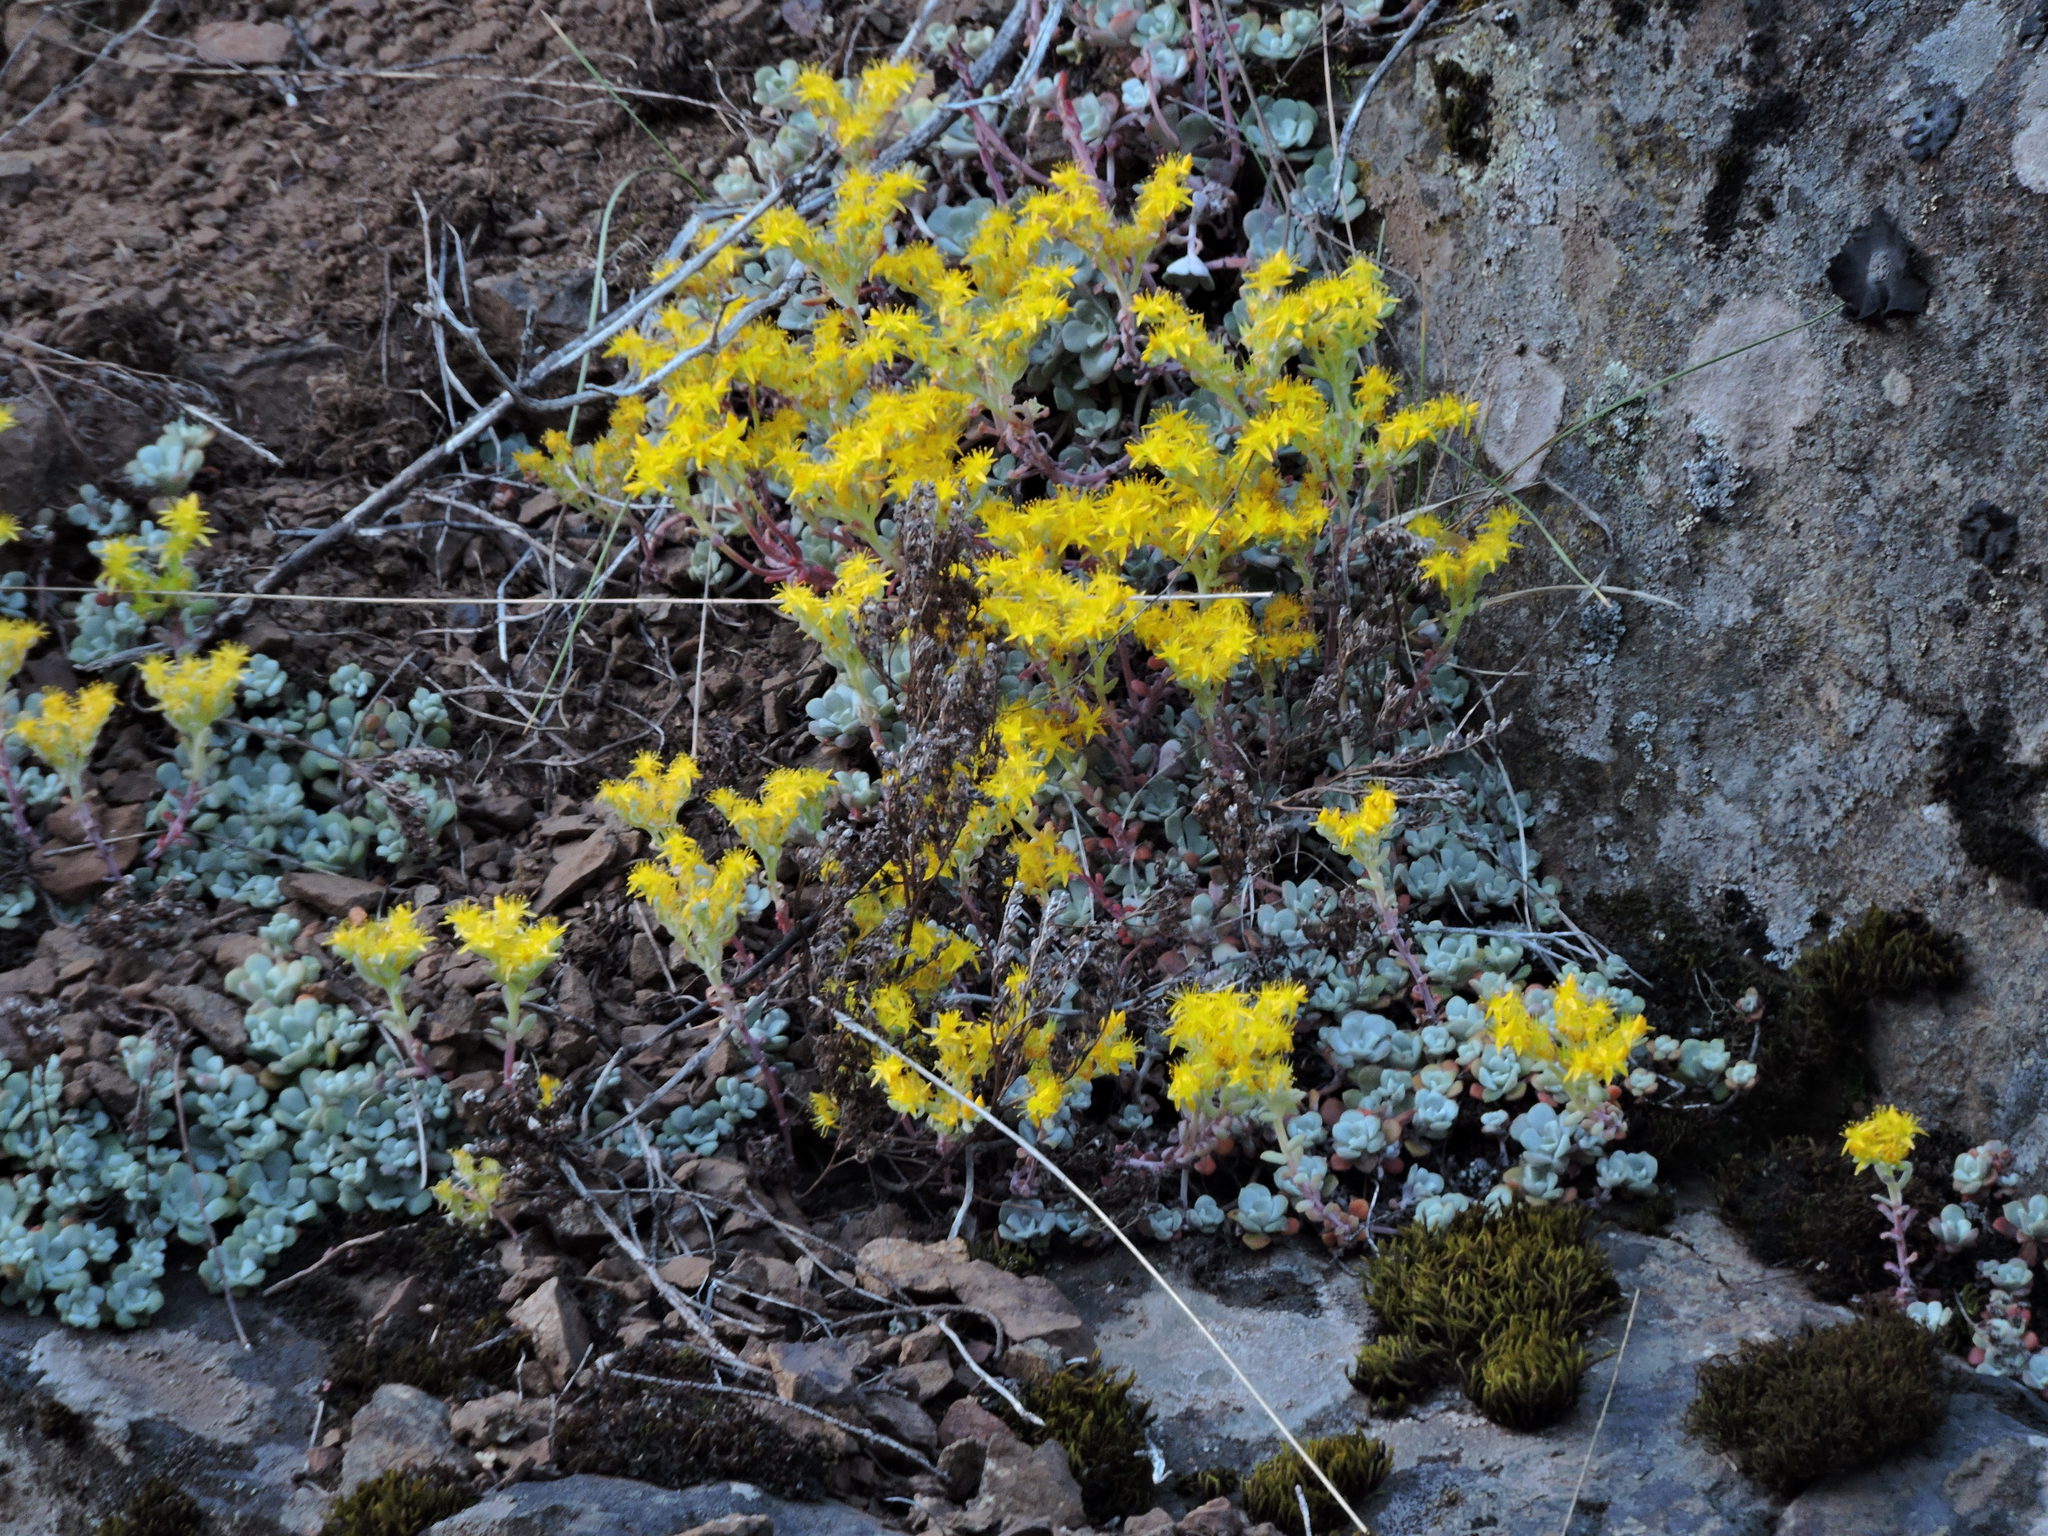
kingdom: Plantae
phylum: Tracheophyta
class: Magnoliopsida
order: Saxifragales
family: Crassulaceae
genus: Sedum
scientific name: Sedum spathulifolium
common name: Colorado stonecrop
